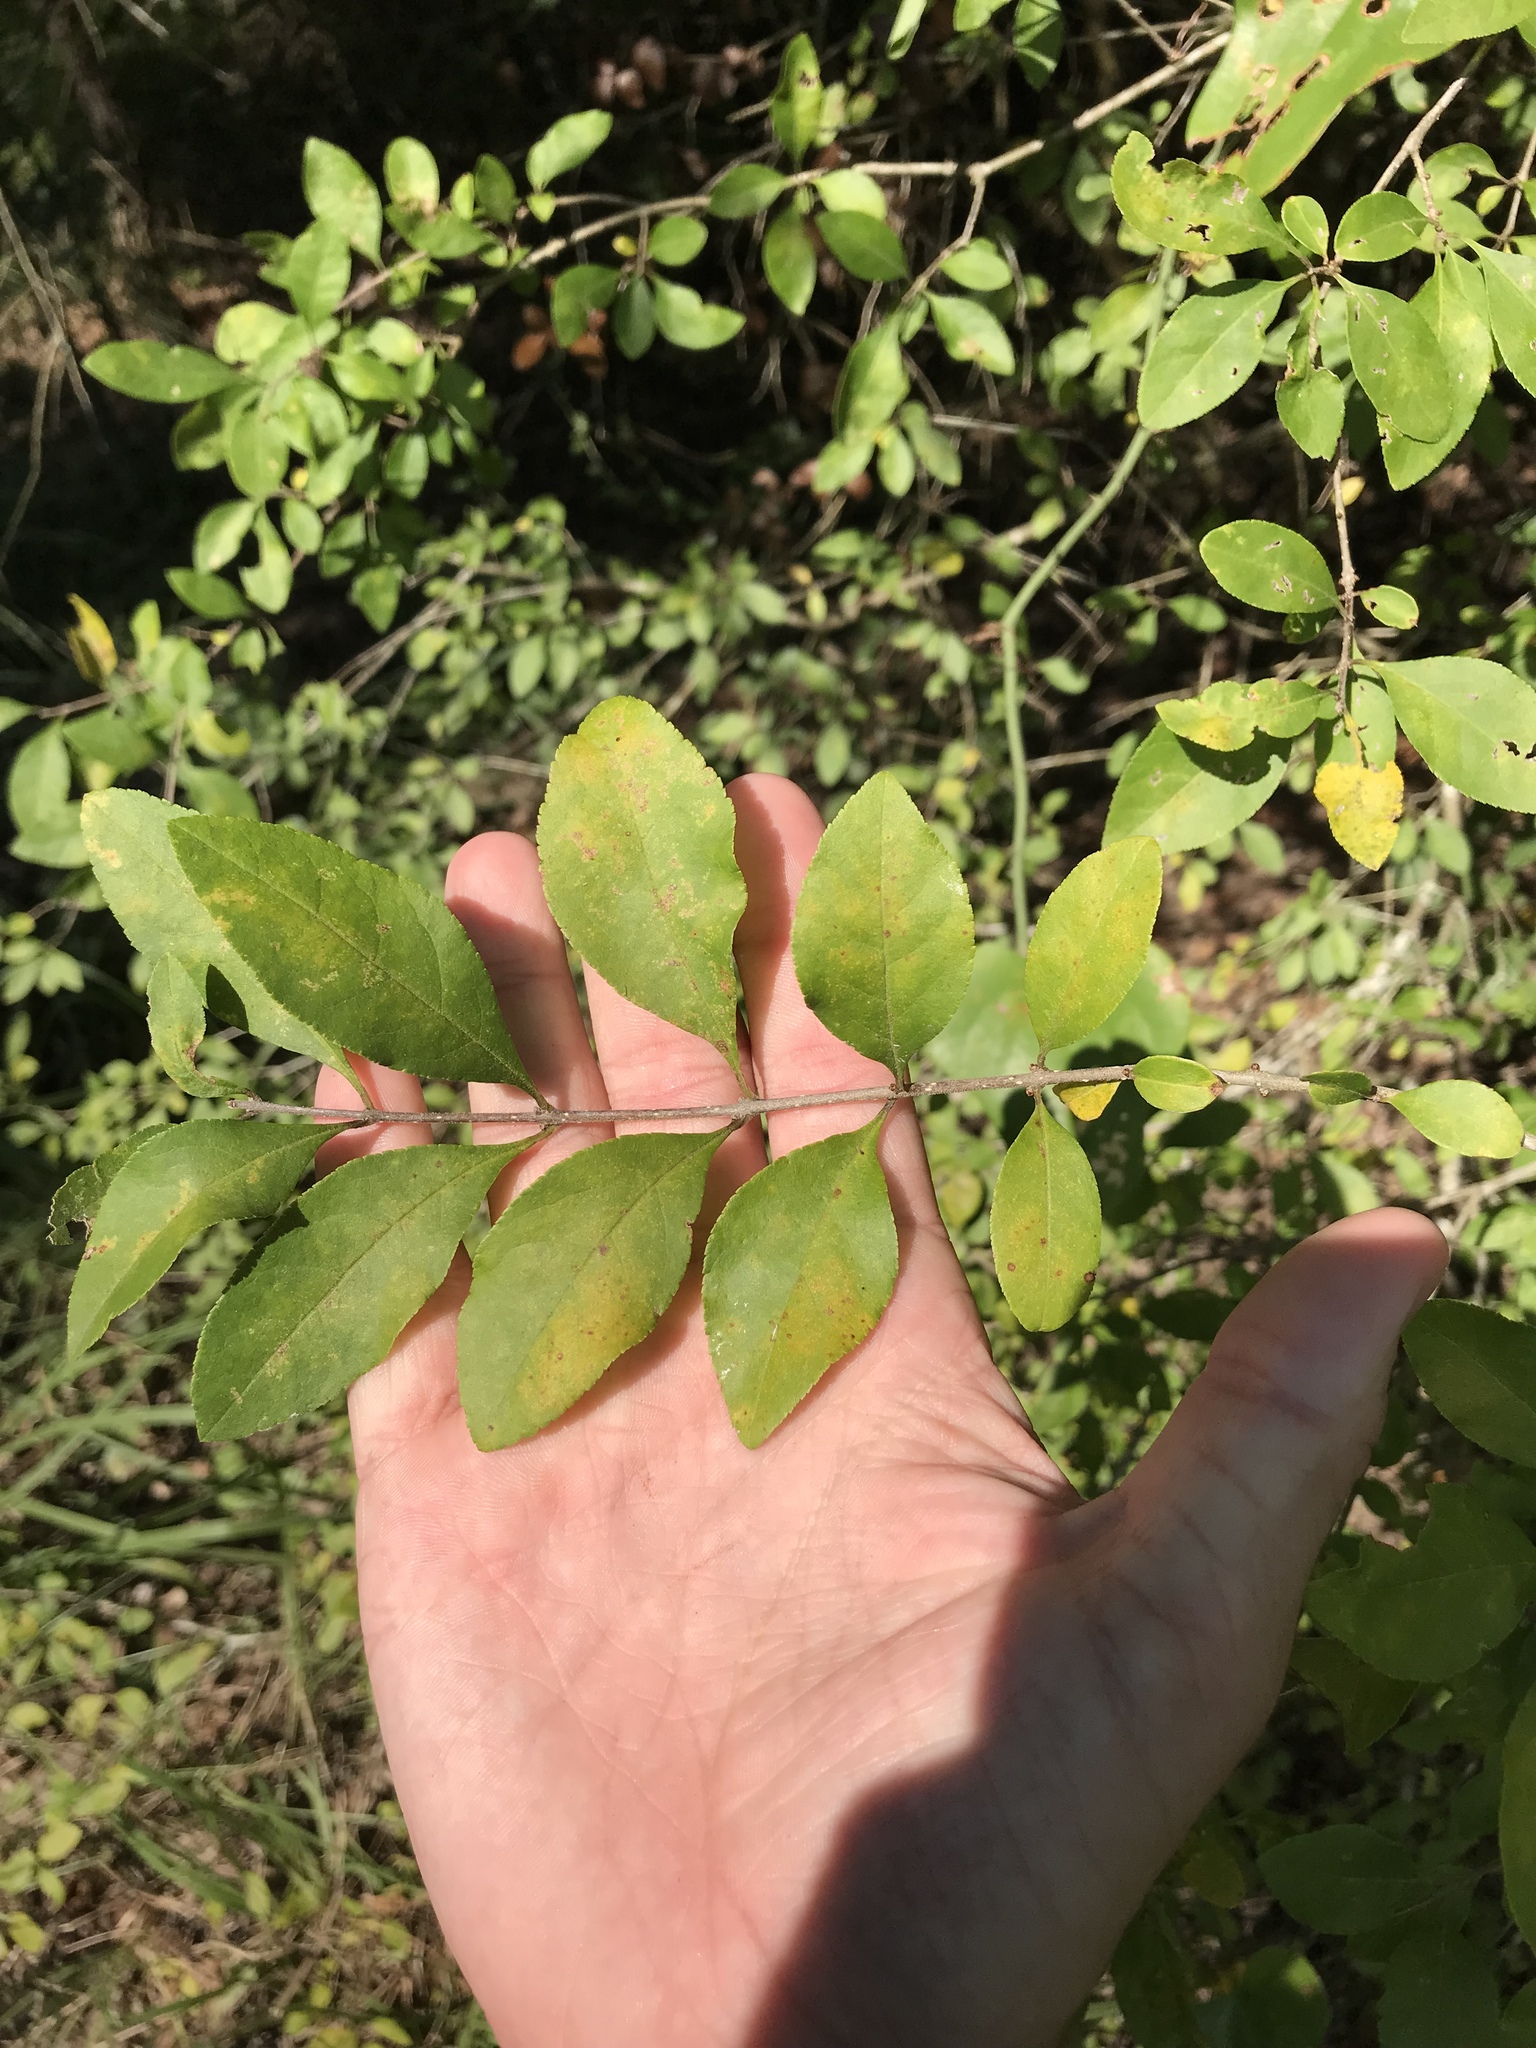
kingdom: Plantae
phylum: Tracheophyta
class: Magnoliopsida
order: Lamiales
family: Oleaceae
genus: Forestiera
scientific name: Forestiera ligustrina
